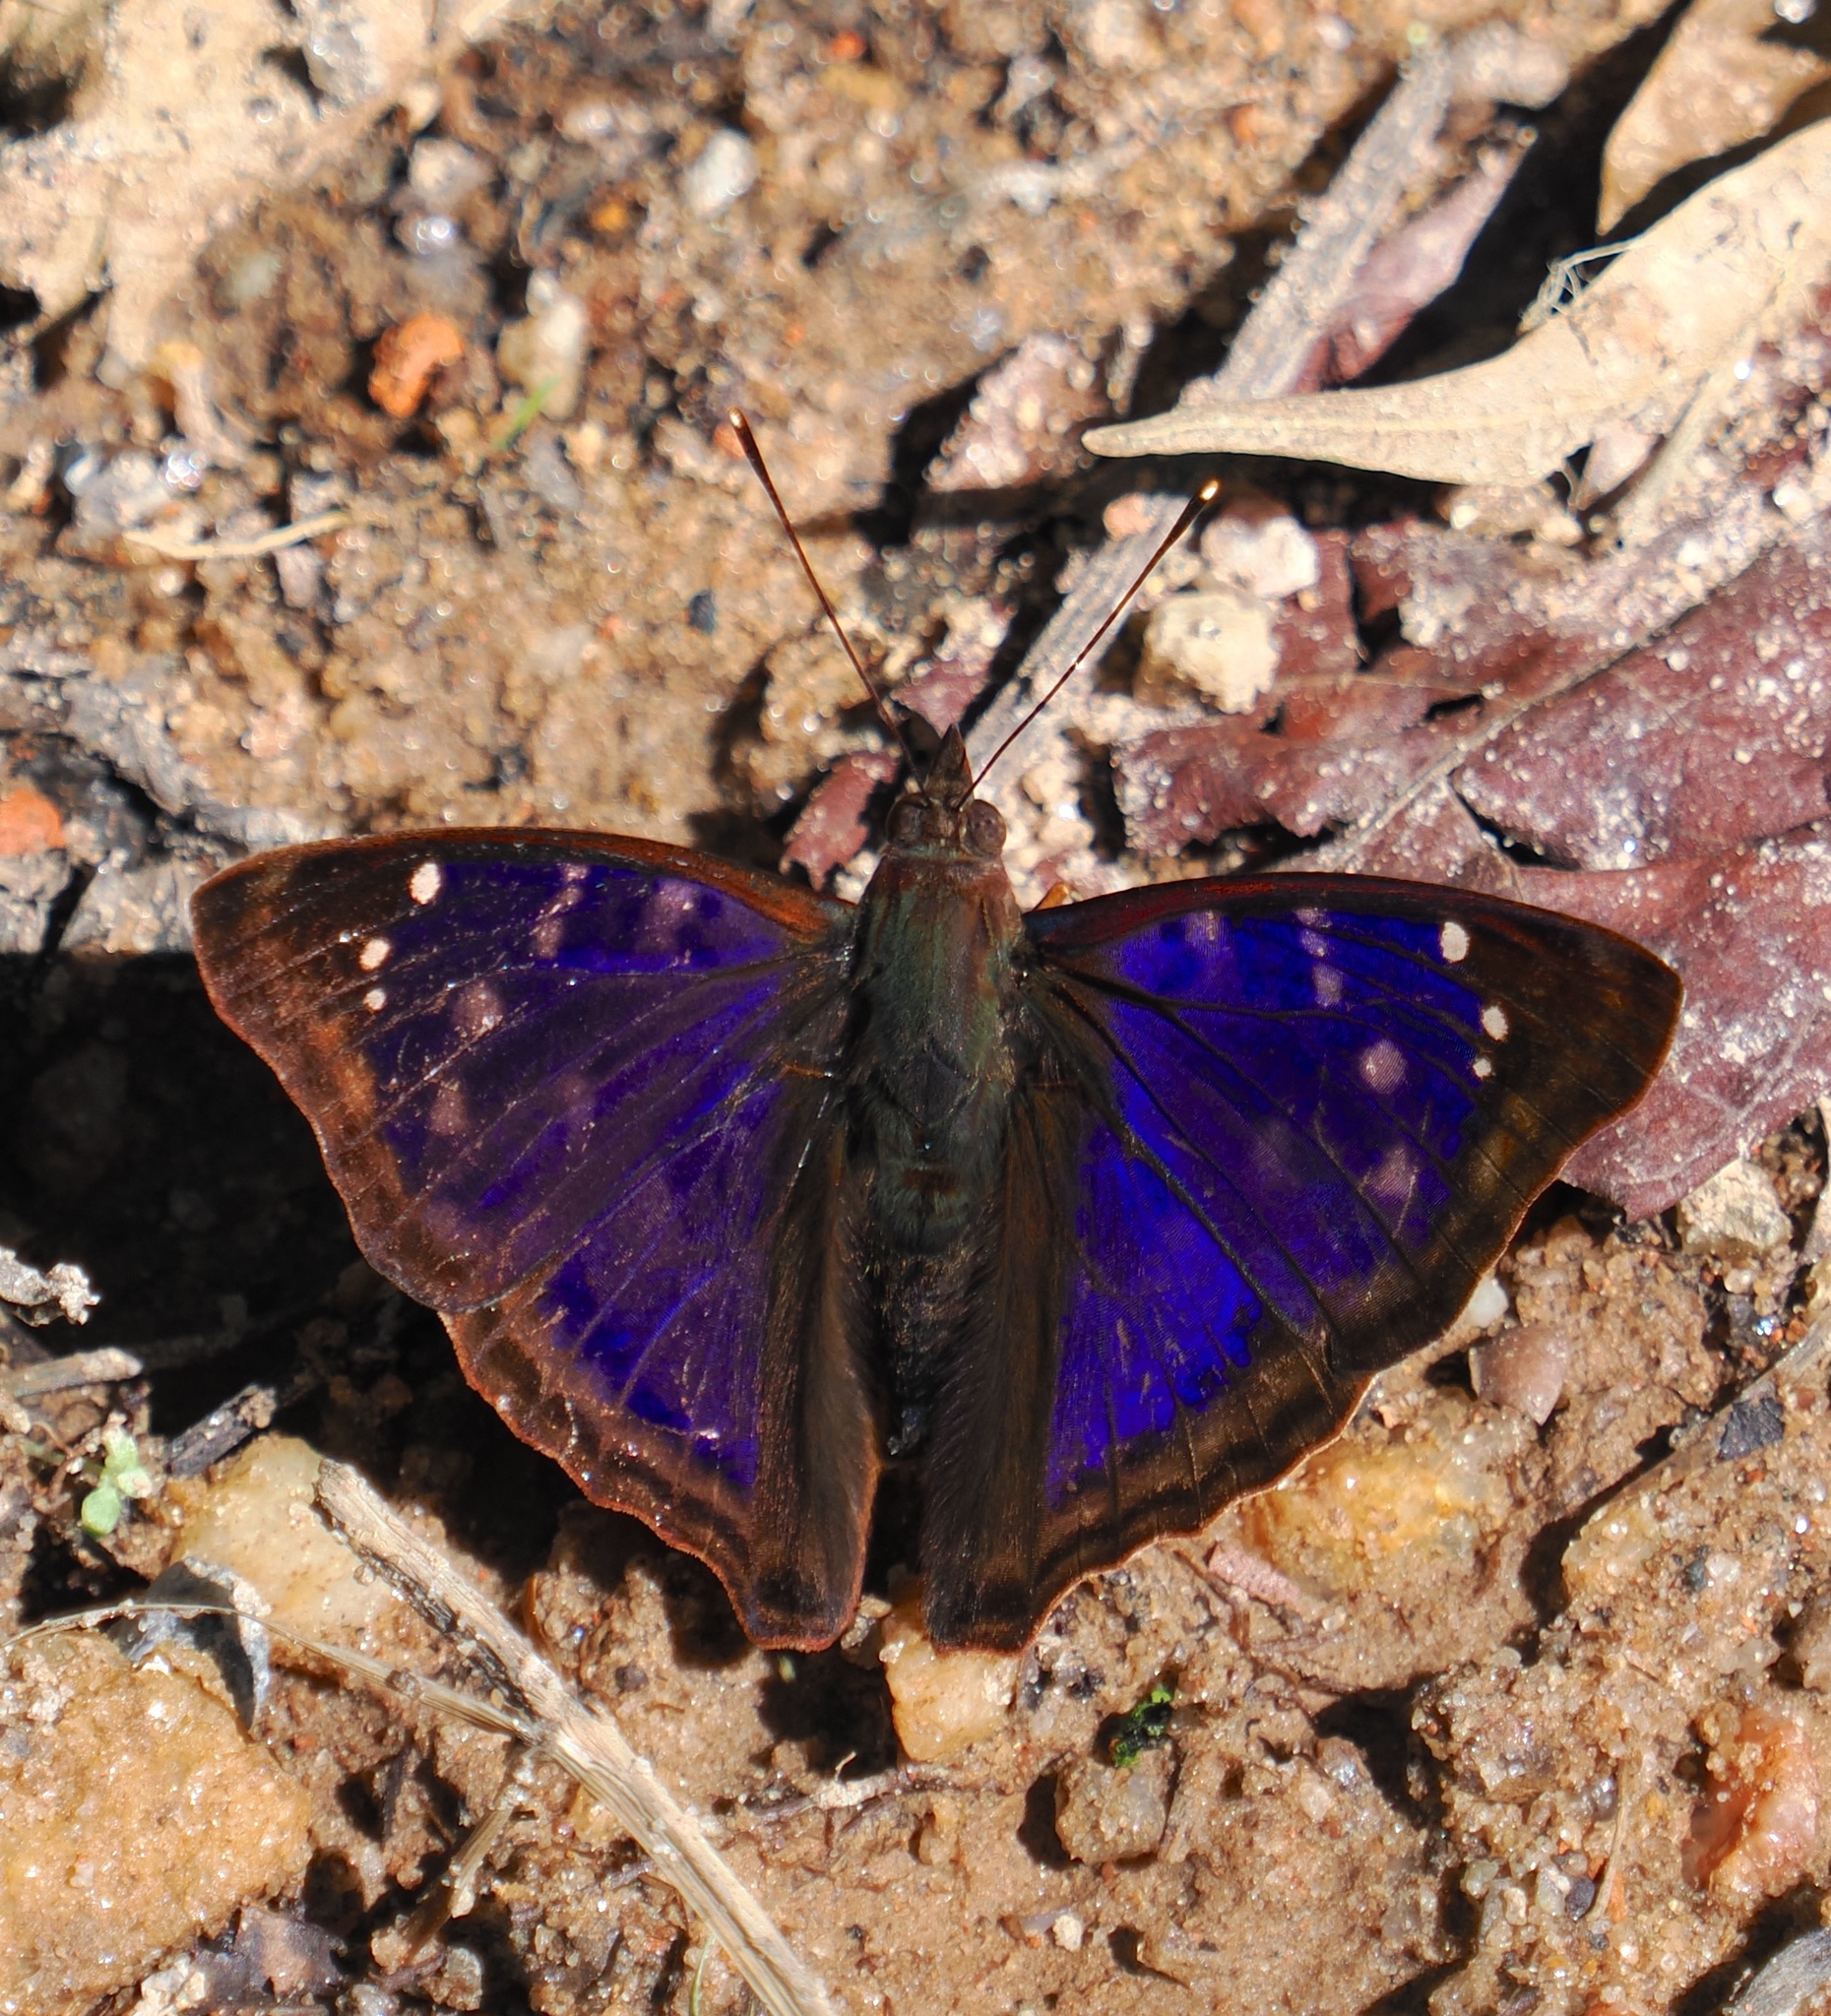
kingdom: Animalia
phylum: Arthropoda
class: Insecta
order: Lepidoptera
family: Nymphalidae
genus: Doxocopa
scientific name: Doxocopa agathina
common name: Agathina emperor
